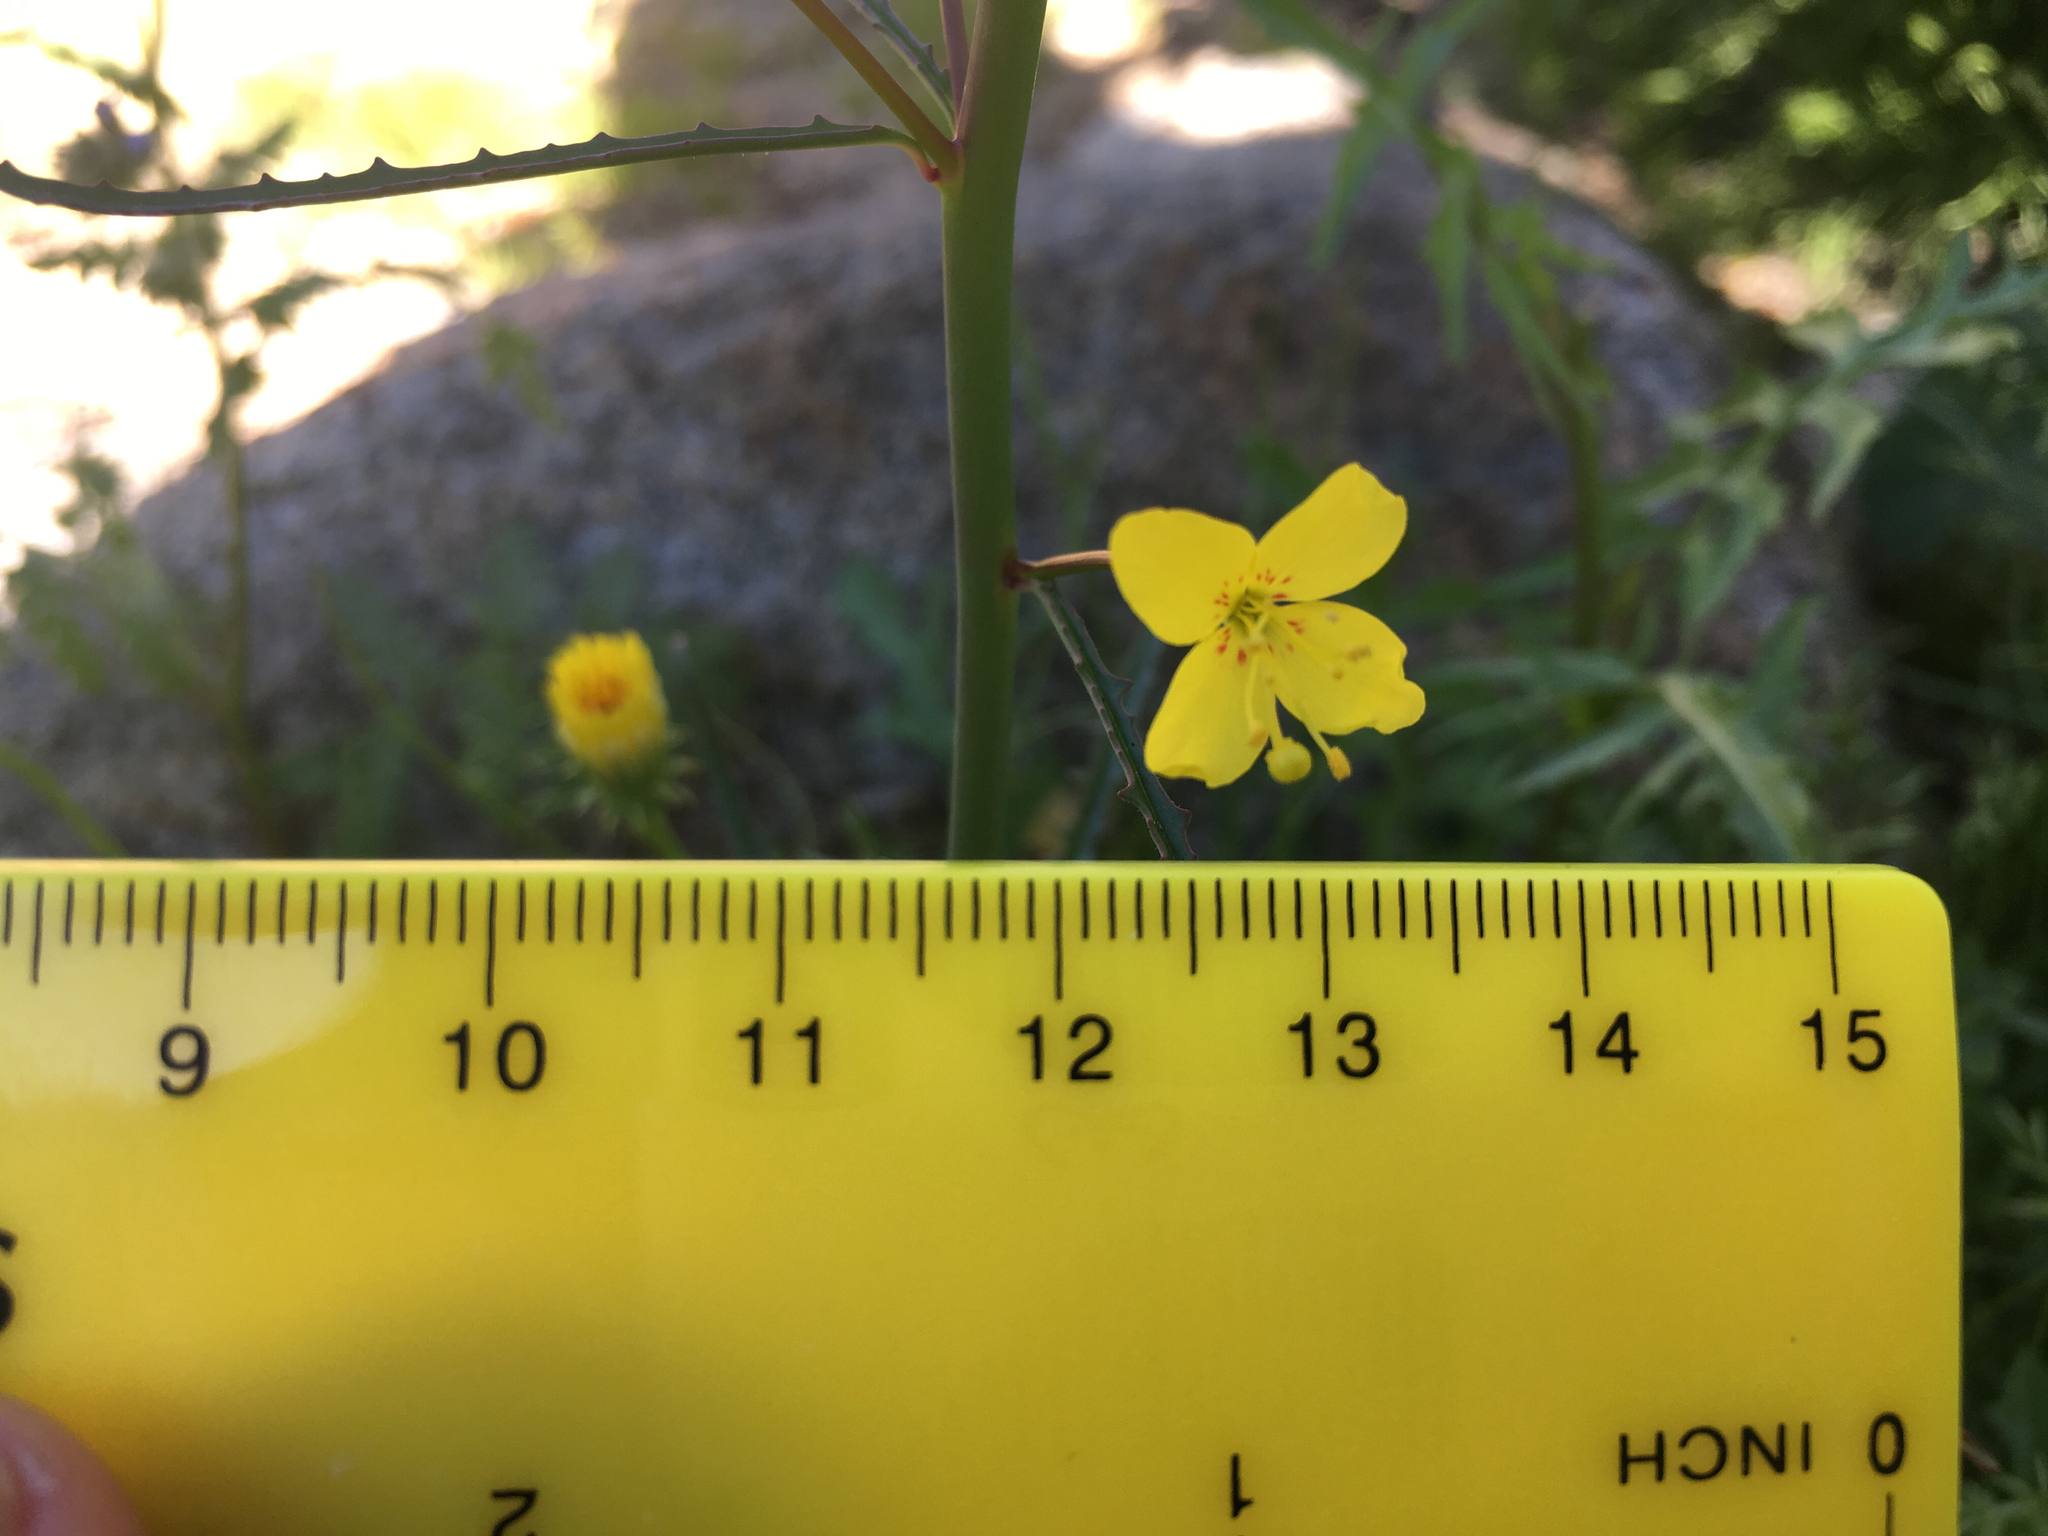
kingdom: Plantae
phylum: Tracheophyta
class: Magnoliopsida
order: Myrtales
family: Onagraceae
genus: Eulobus
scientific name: Eulobus californicus
